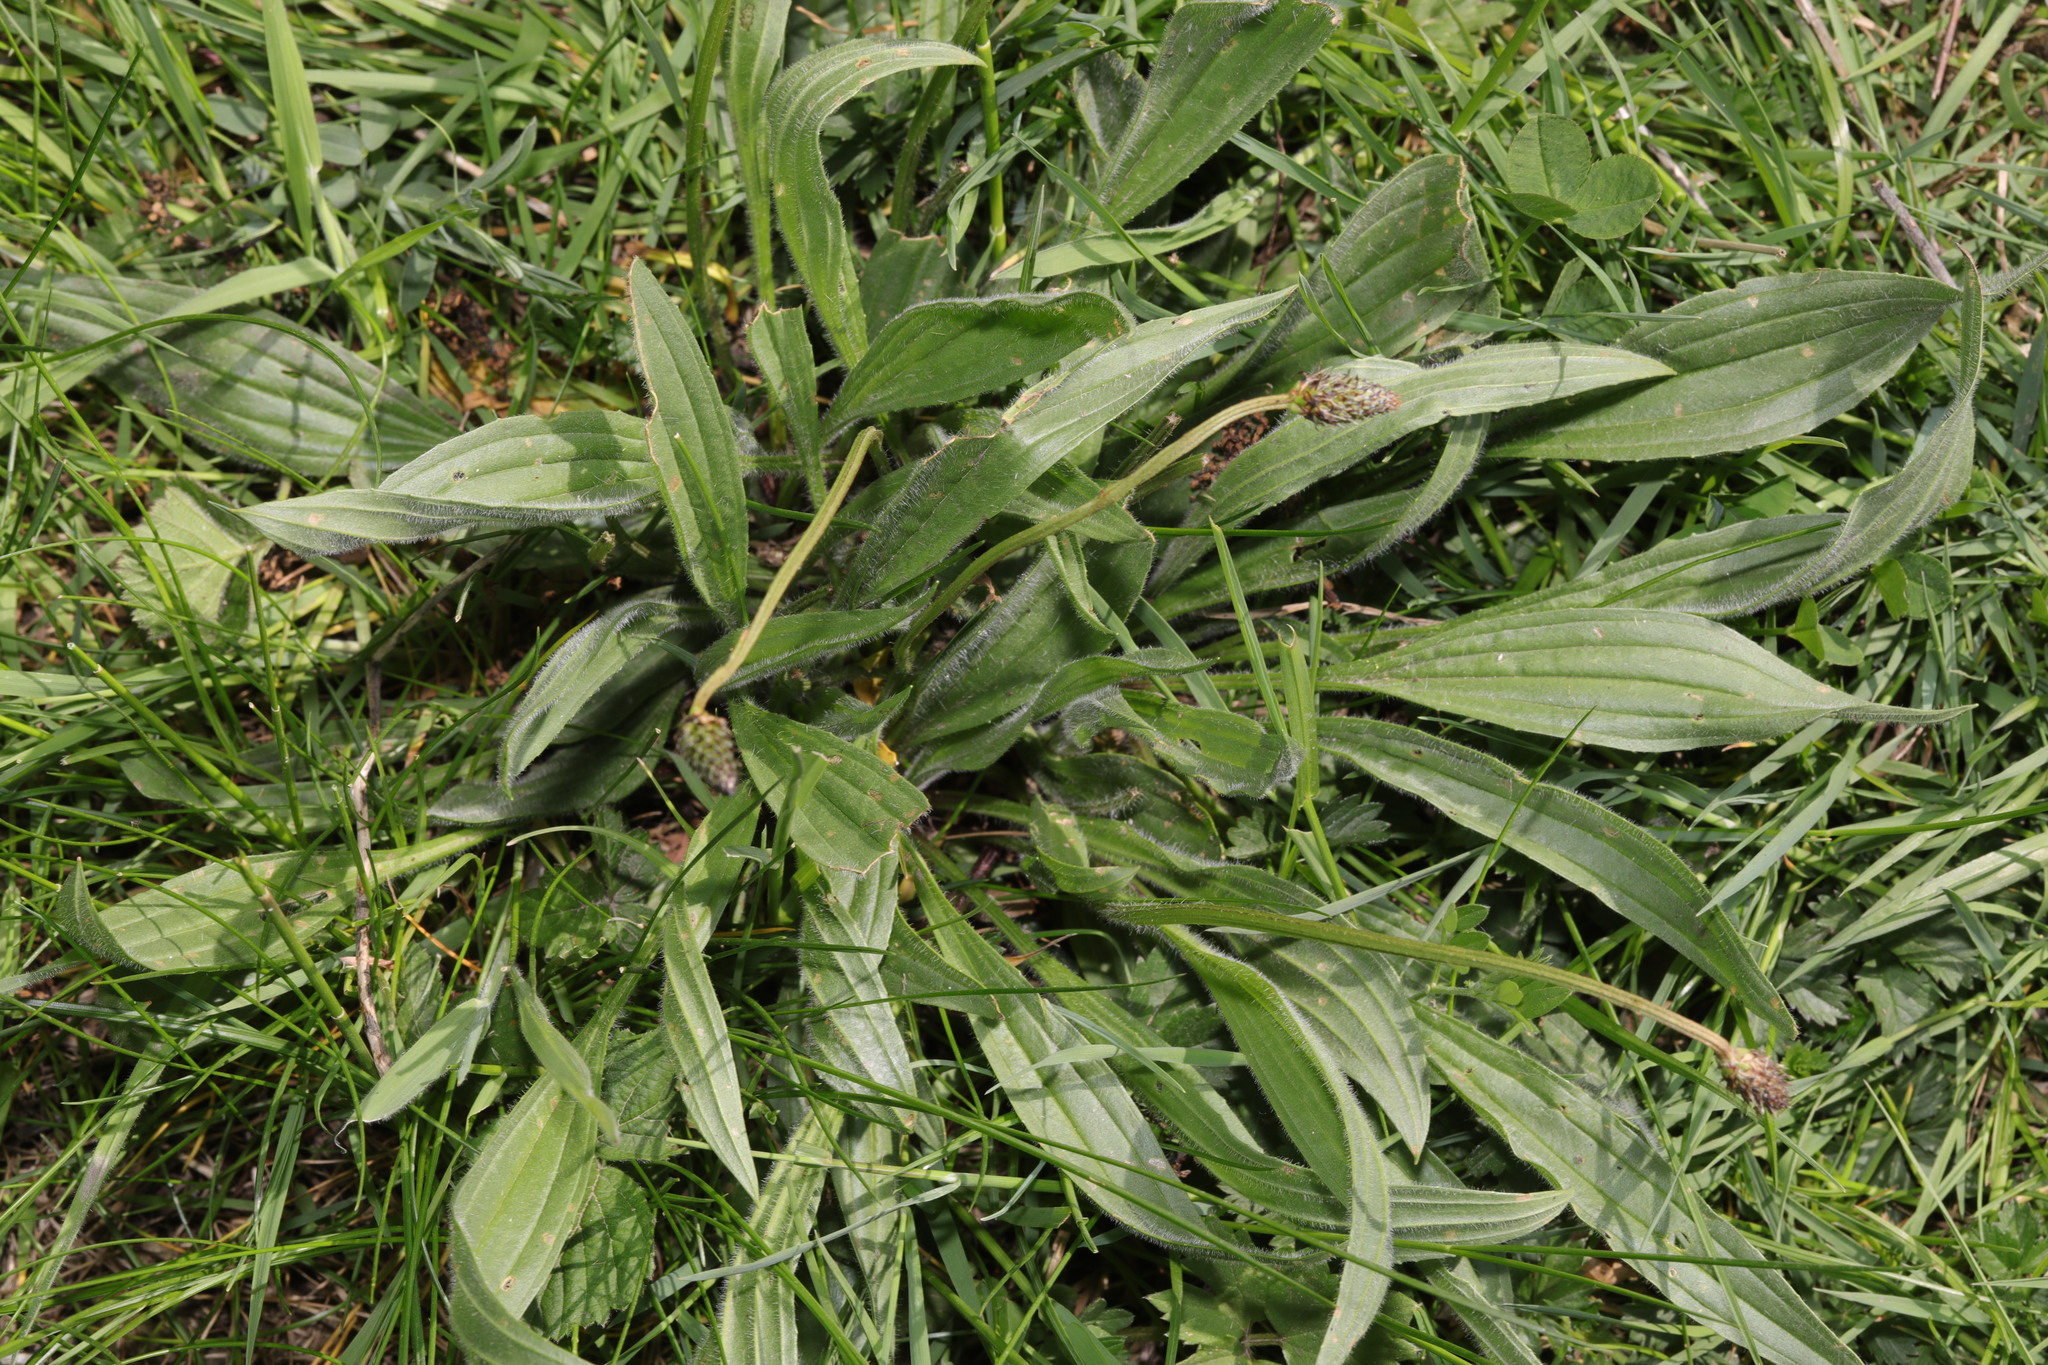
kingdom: Plantae
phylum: Tracheophyta
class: Magnoliopsida
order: Lamiales
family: Plantaginaceae
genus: Plantago
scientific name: Plantago lanceolata
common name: Ribwort plantain
